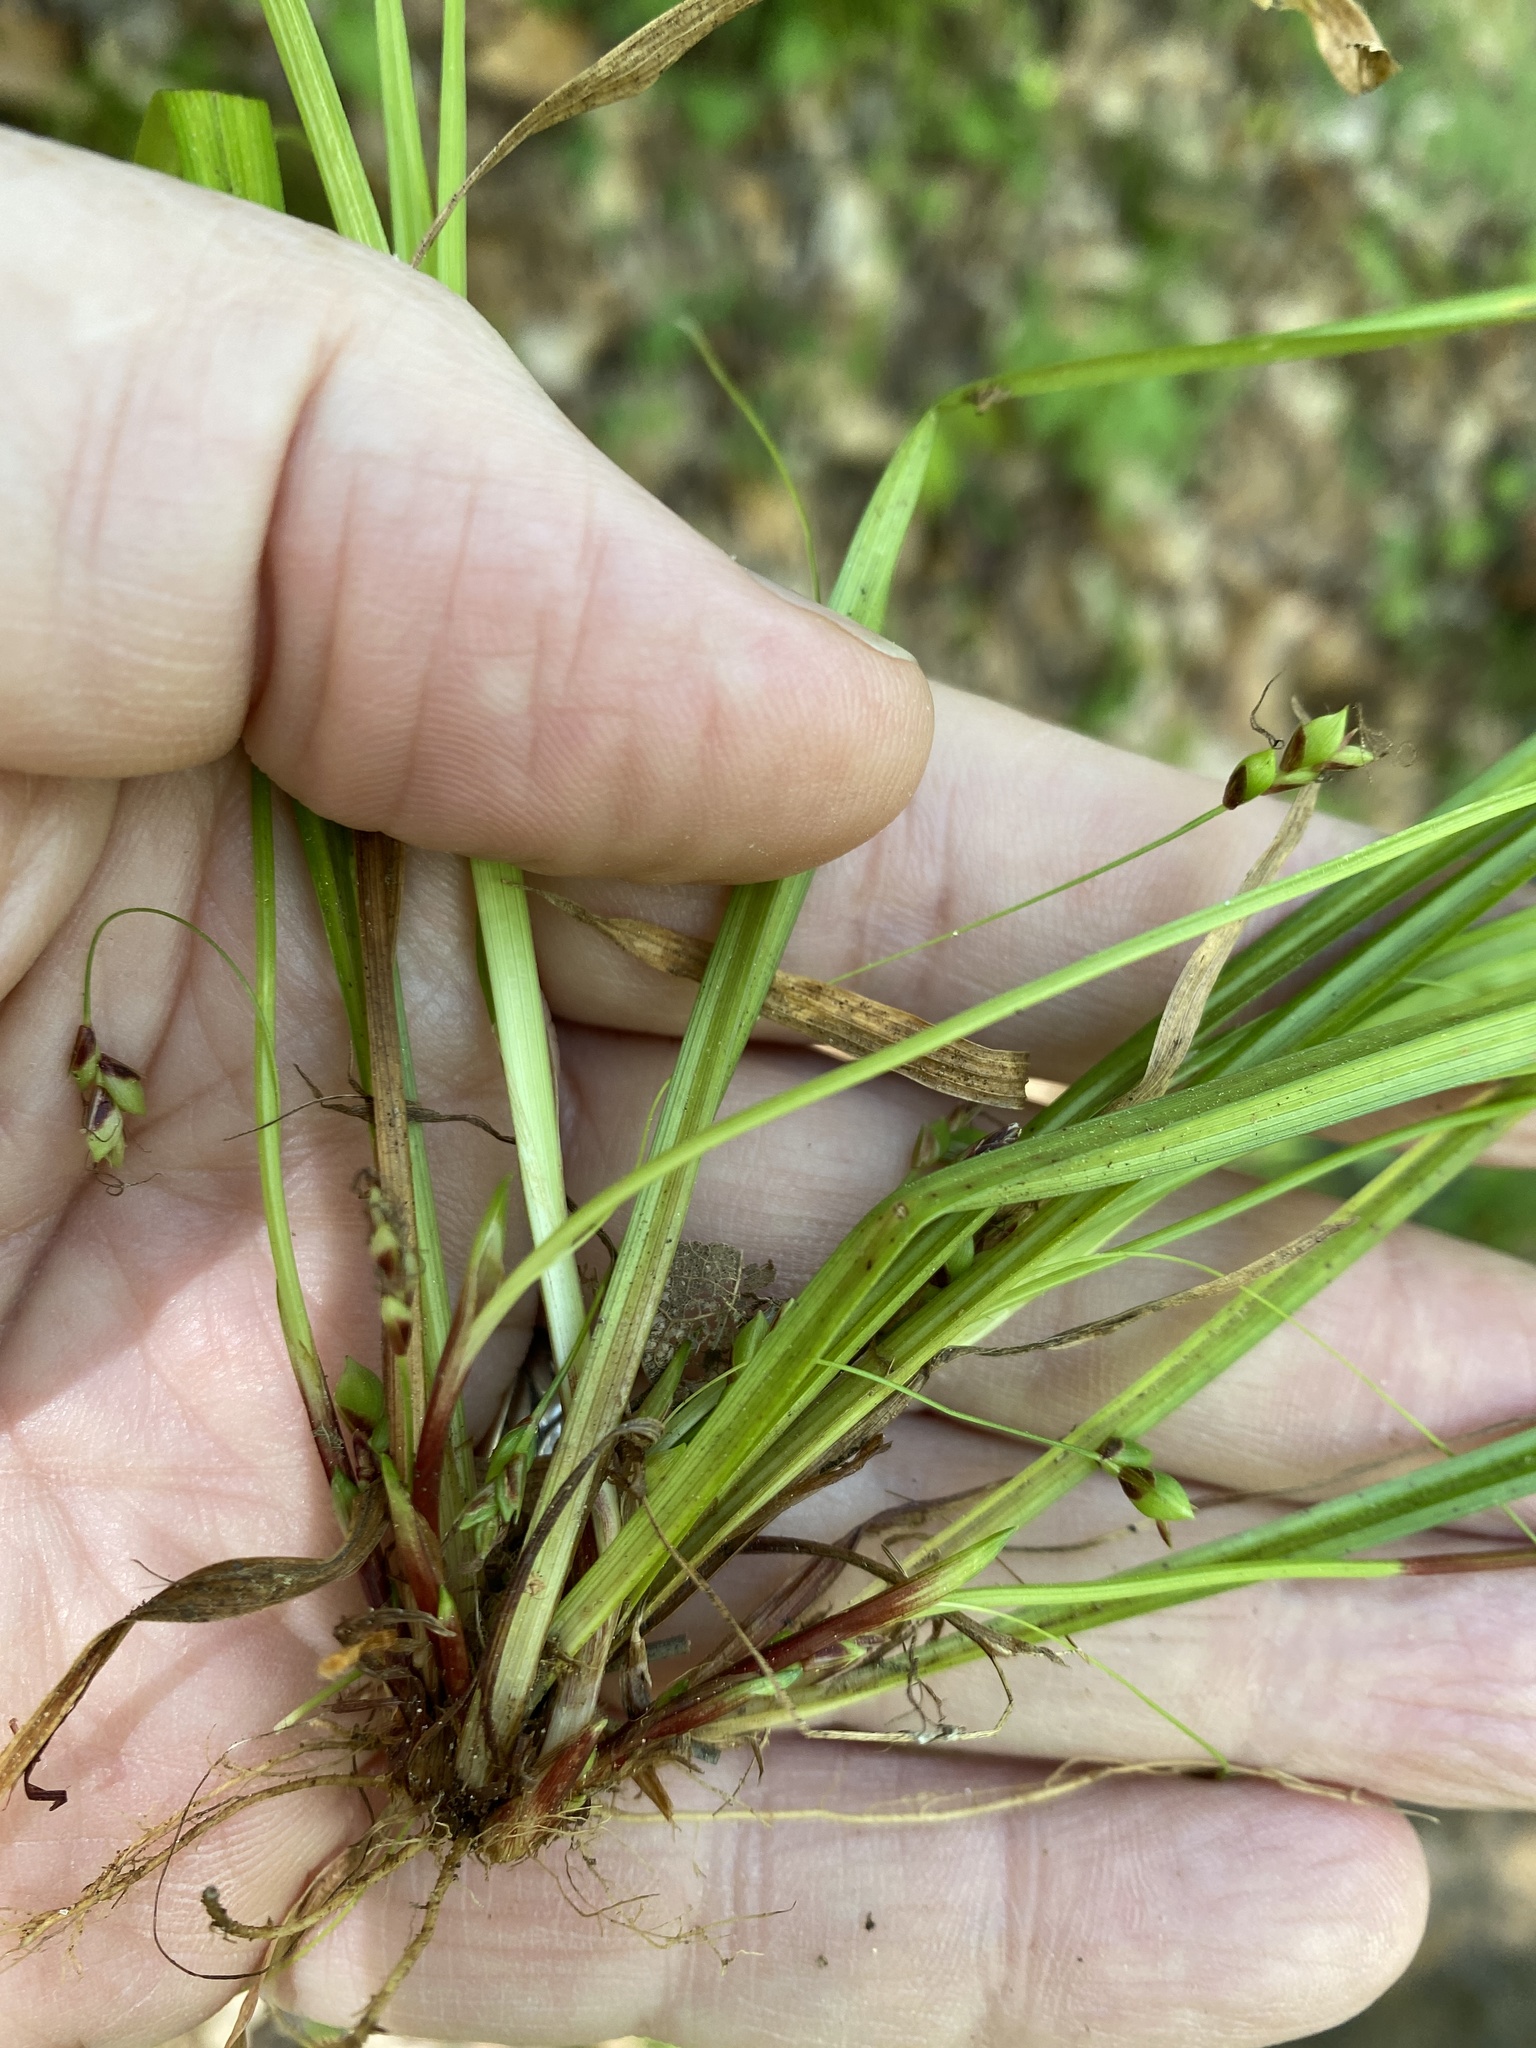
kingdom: Plantae
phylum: Tracheophyta
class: Liliopsida
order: Poales
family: Cyperaceae
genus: Carex
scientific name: Carex austrocaroliniana
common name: Tarheel sedge
